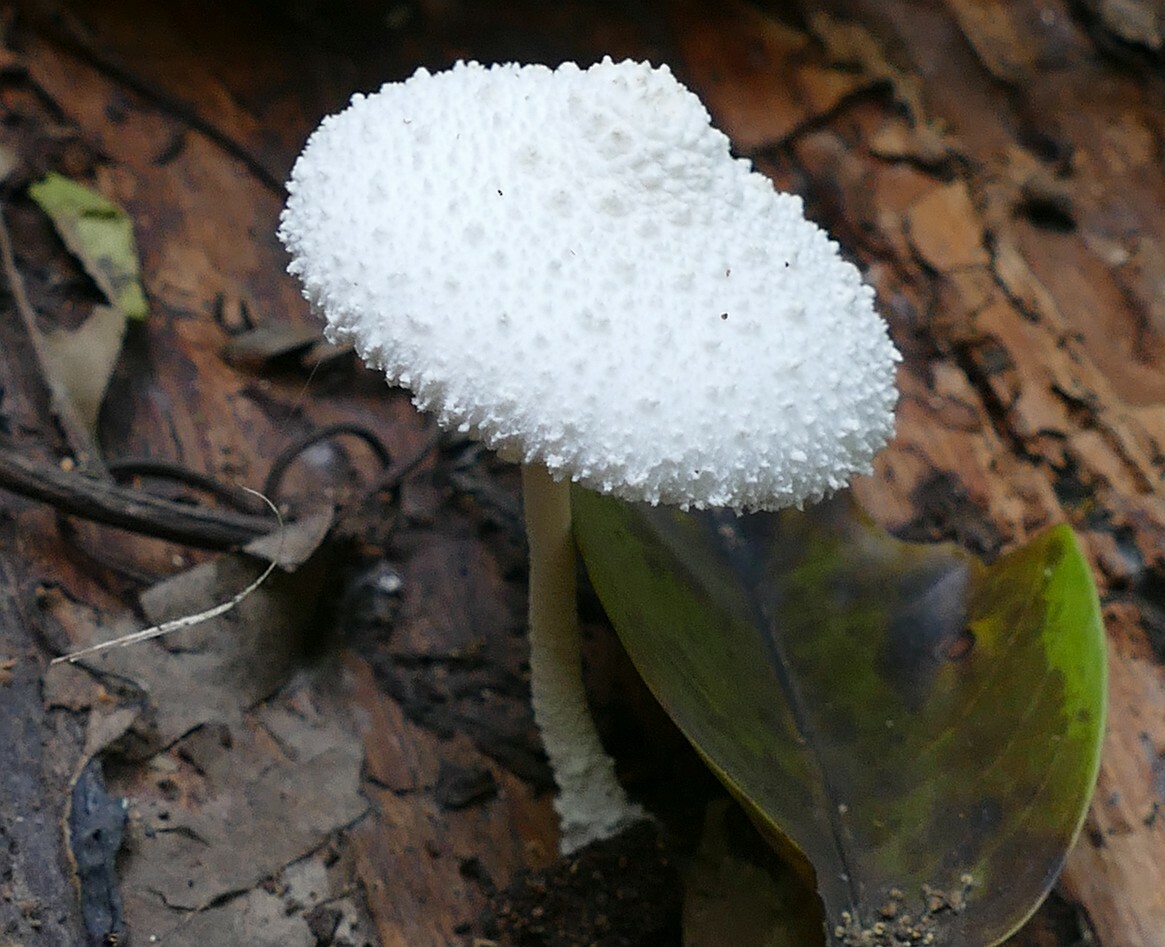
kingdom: Fungi
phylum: Basidiomycota
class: Agaricomycetes
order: Agaricales
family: Agaricaceae
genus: Leucocoprinus
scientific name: Leucocoprinus cretaceus
